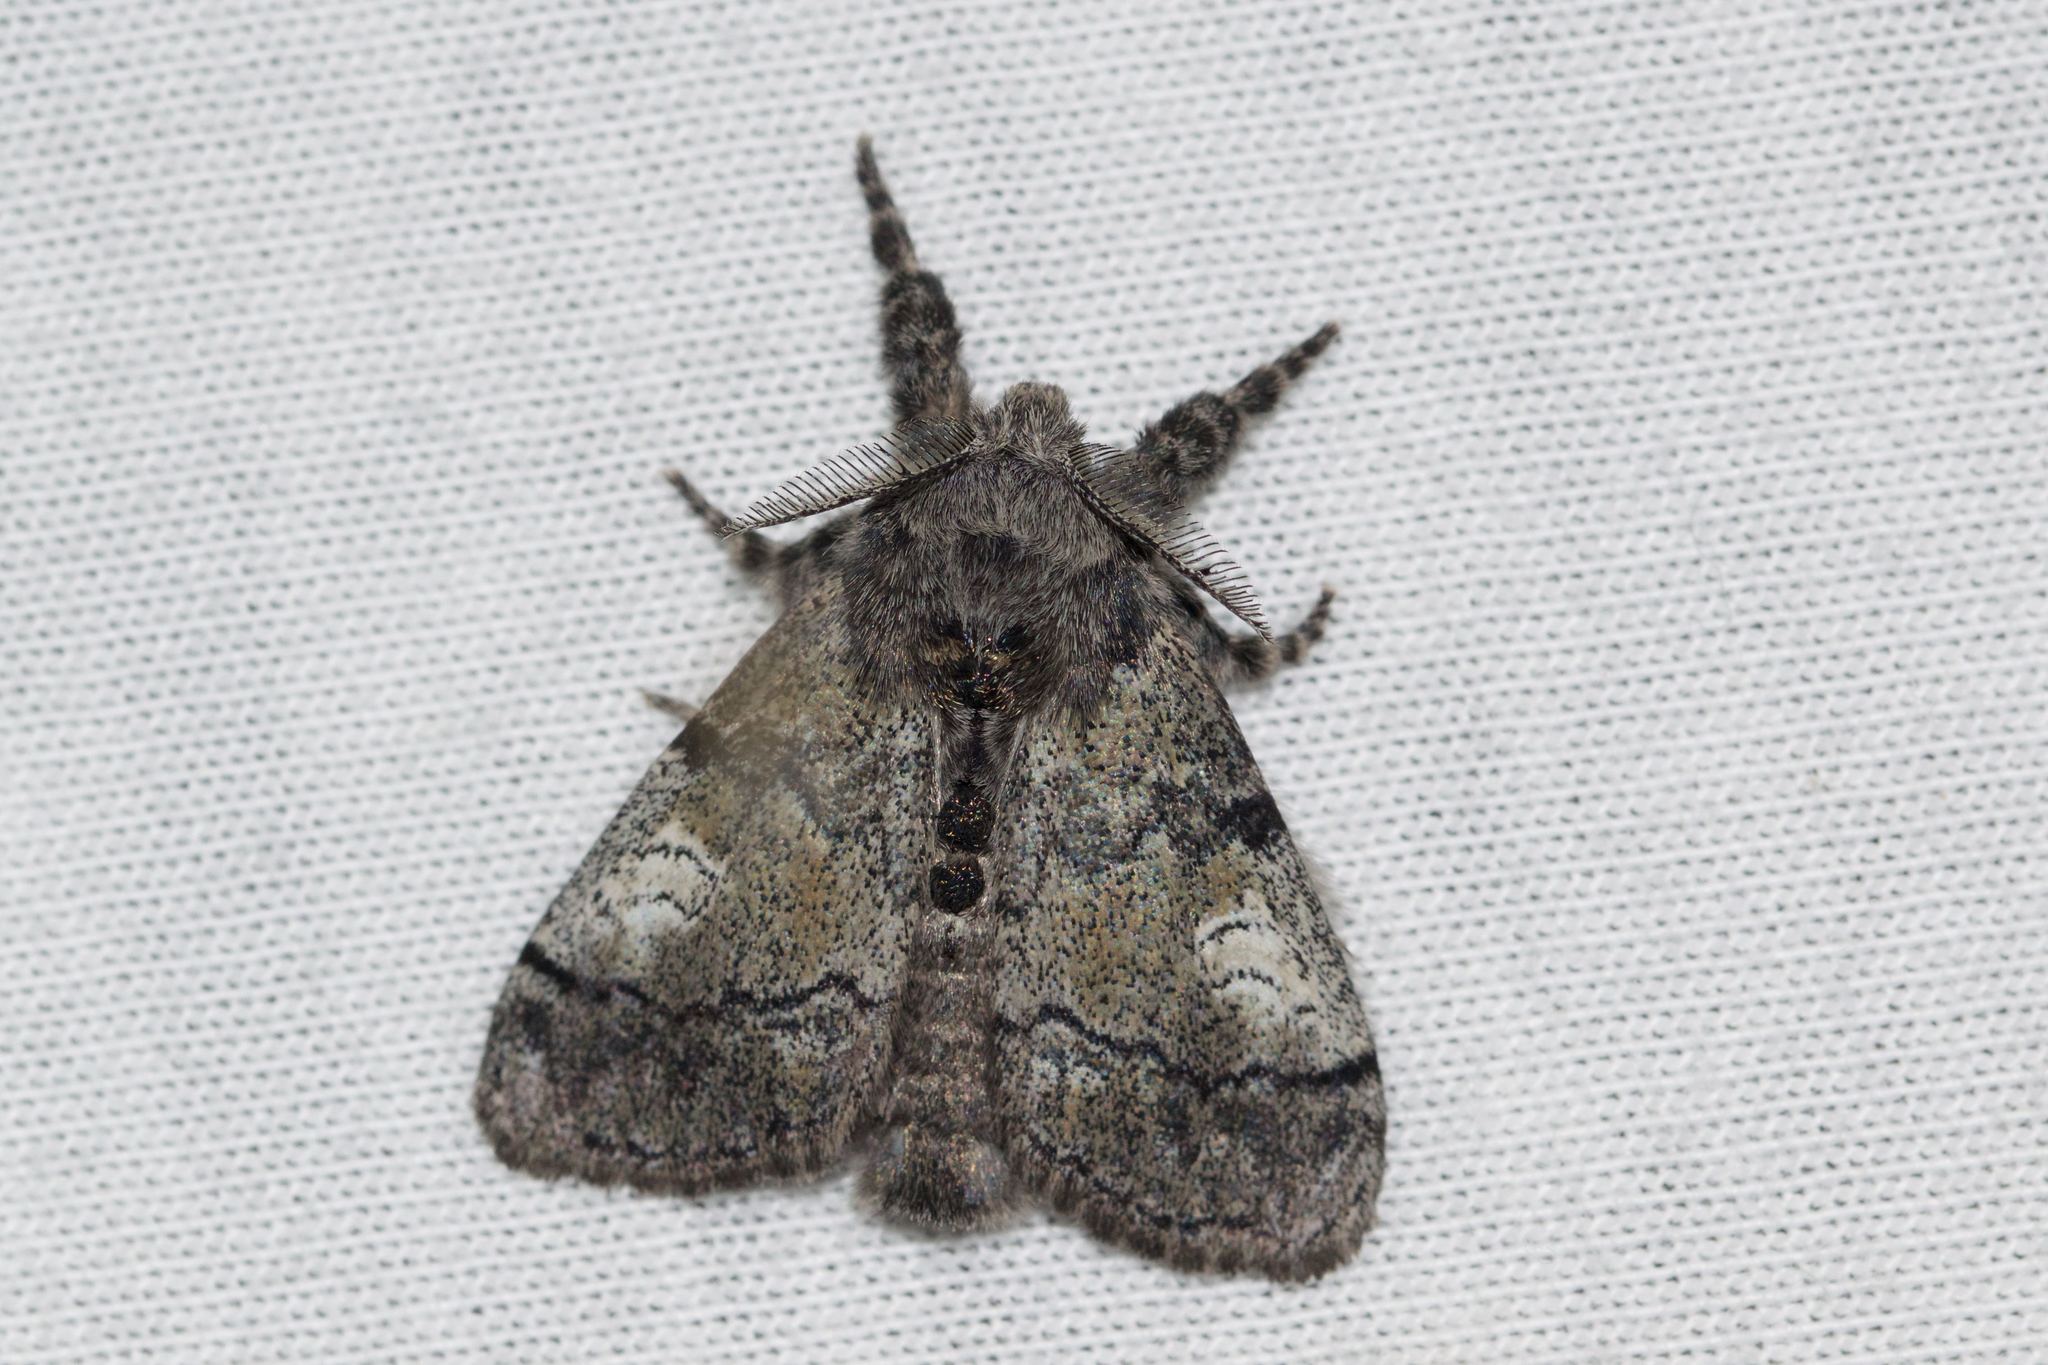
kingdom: Animalia
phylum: Arthropoda
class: Insecta
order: Lepidoptera
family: Erebidae
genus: Dasychira
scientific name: Dasychira vagans
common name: Variable tussock moth
